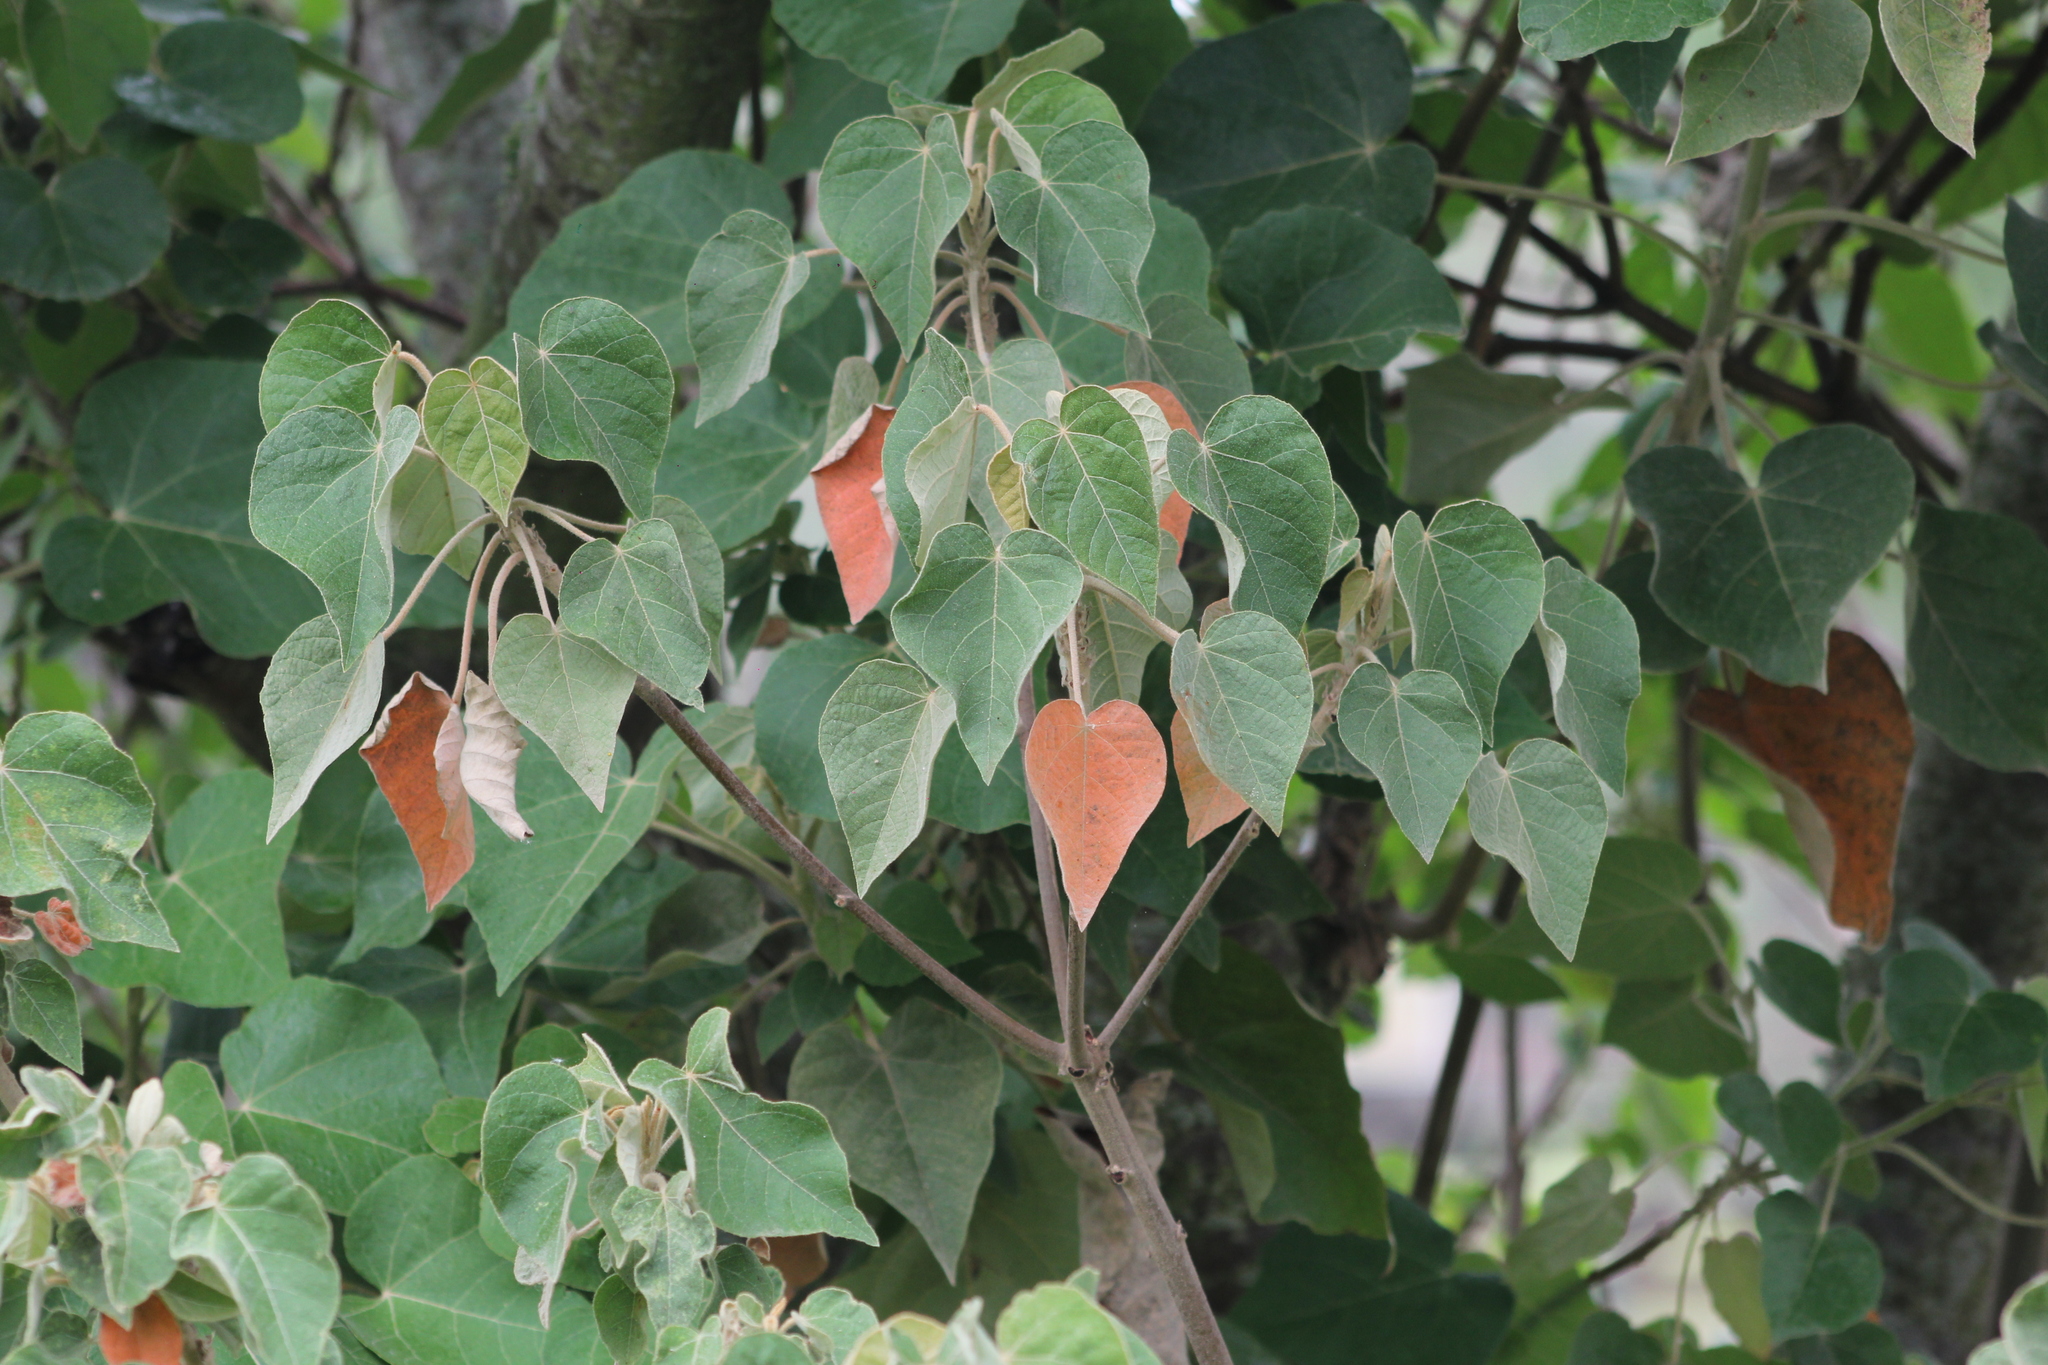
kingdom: Plantae
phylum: Tracheophyta
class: Magnoliopsida
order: Malpighiales
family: Euphorbiaceae
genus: Croton
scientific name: Croton urucurana
